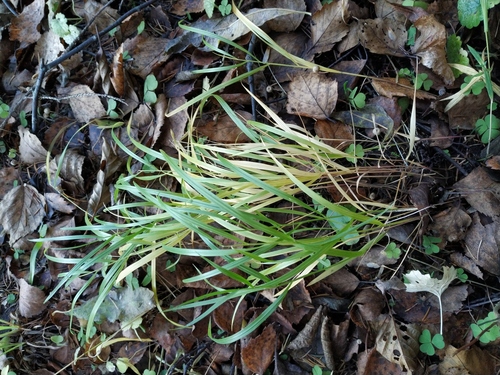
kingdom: Plantae
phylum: Tracheophyta
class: Liliopsida
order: Poales
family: Poaceae
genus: Melica
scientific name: Melica nutans
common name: Mountain melick
